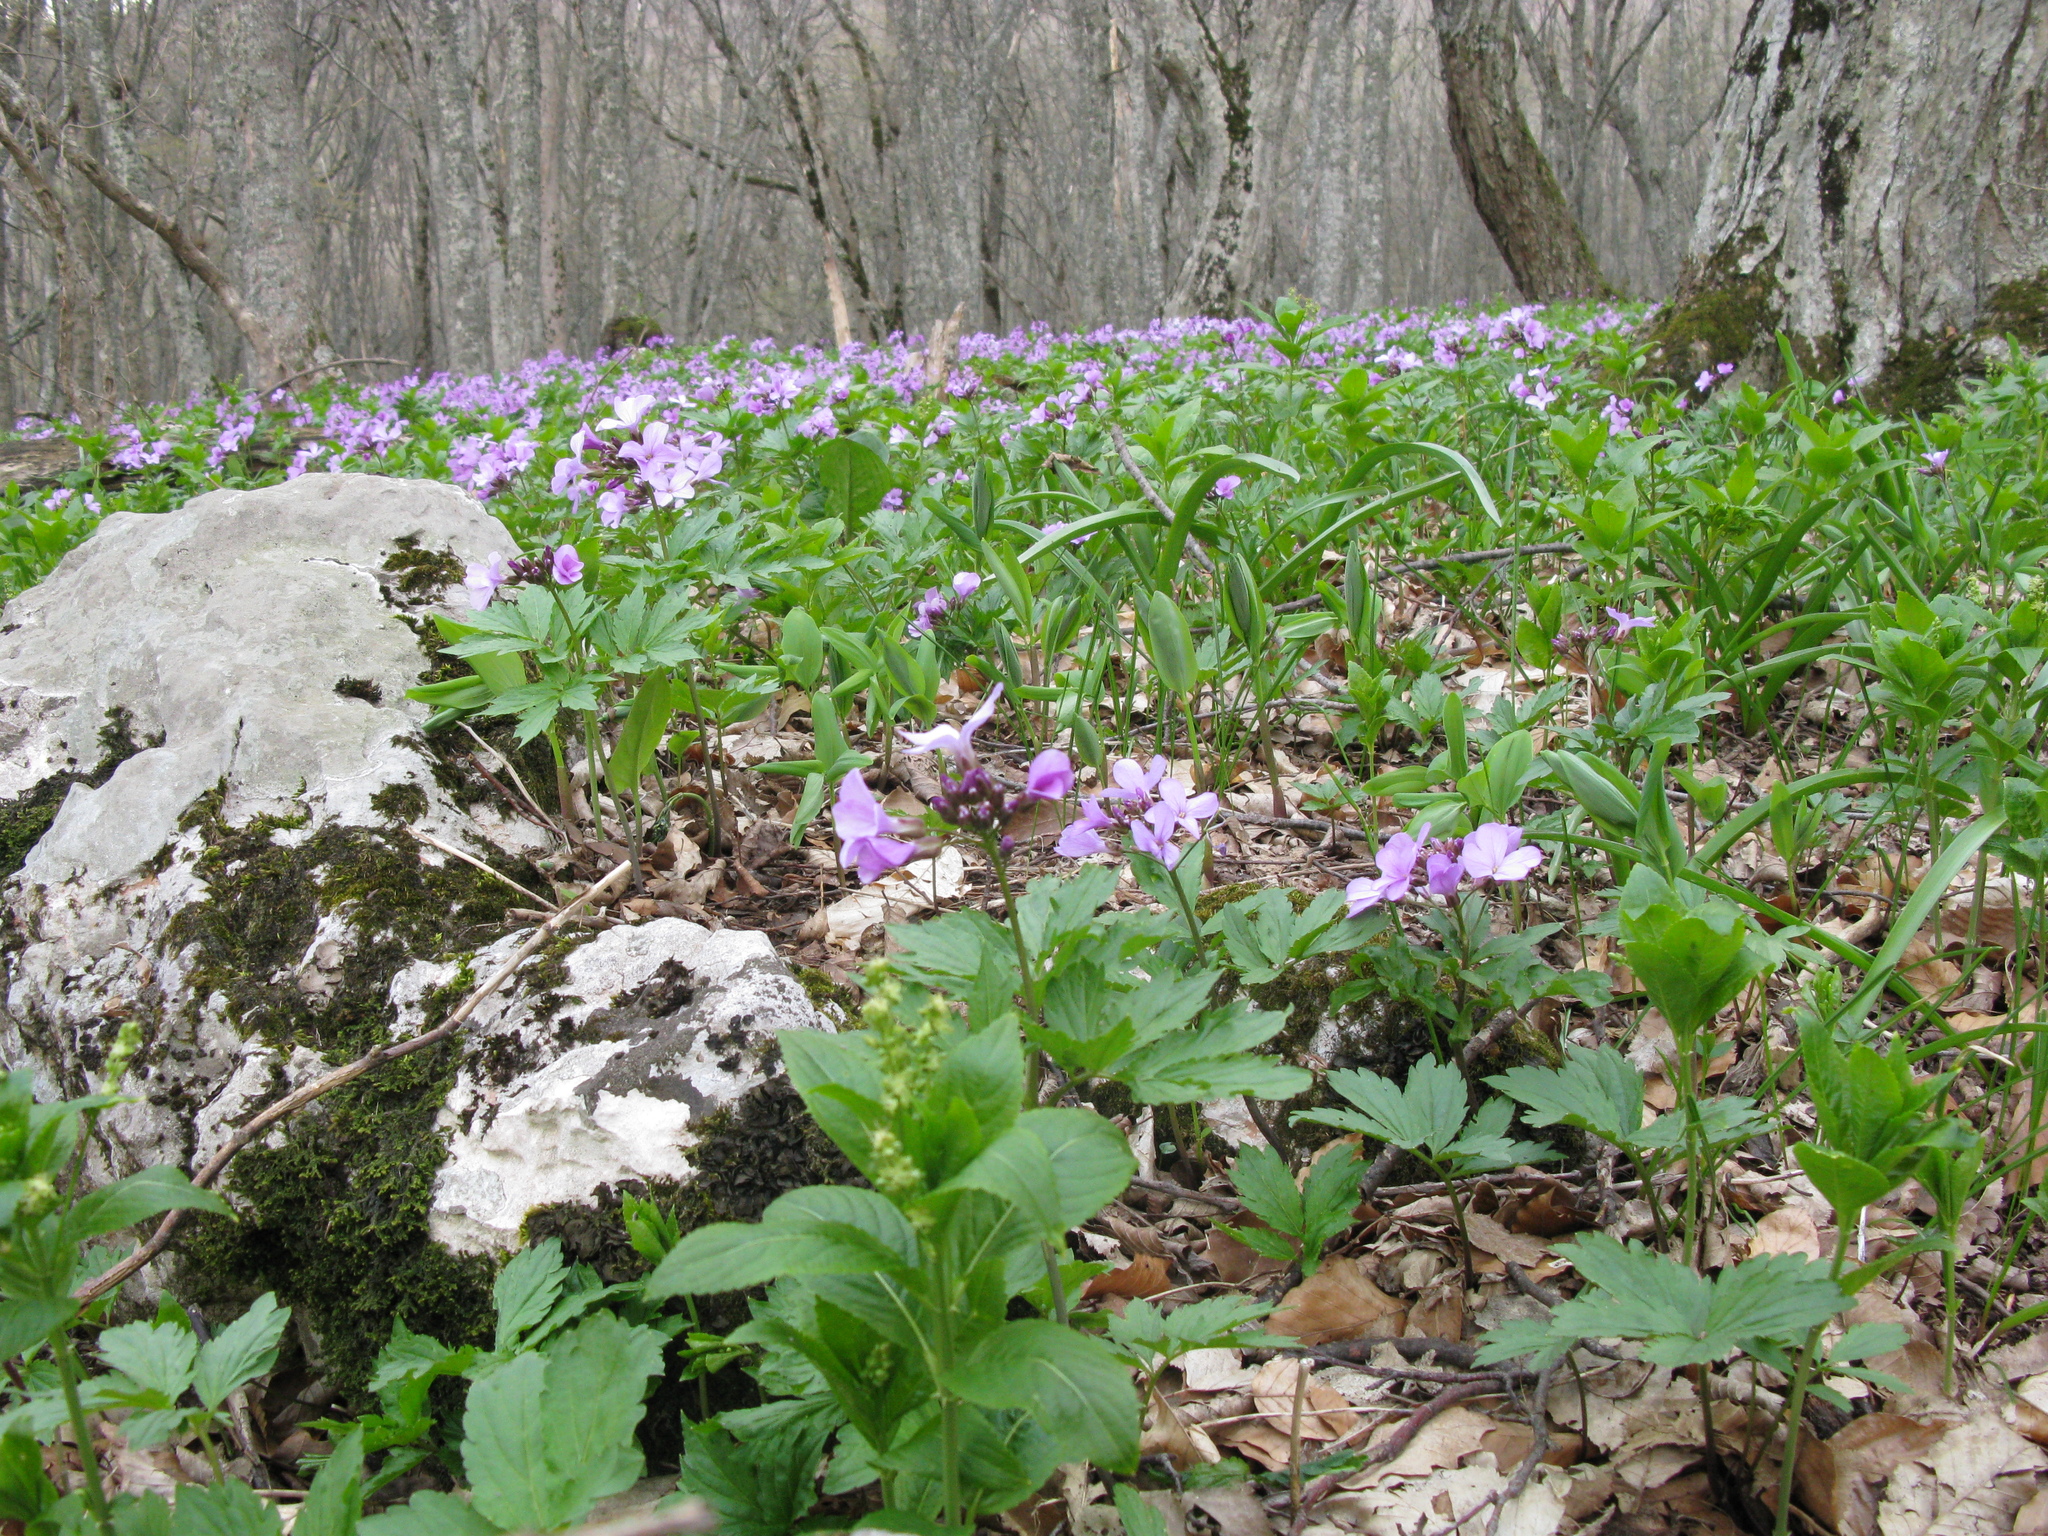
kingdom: Plantae
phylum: Tracheophyta
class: Magnoliopsida
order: Brassicales
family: Brassicaceae
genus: Cardamine
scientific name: Cardamine quinquefolia
